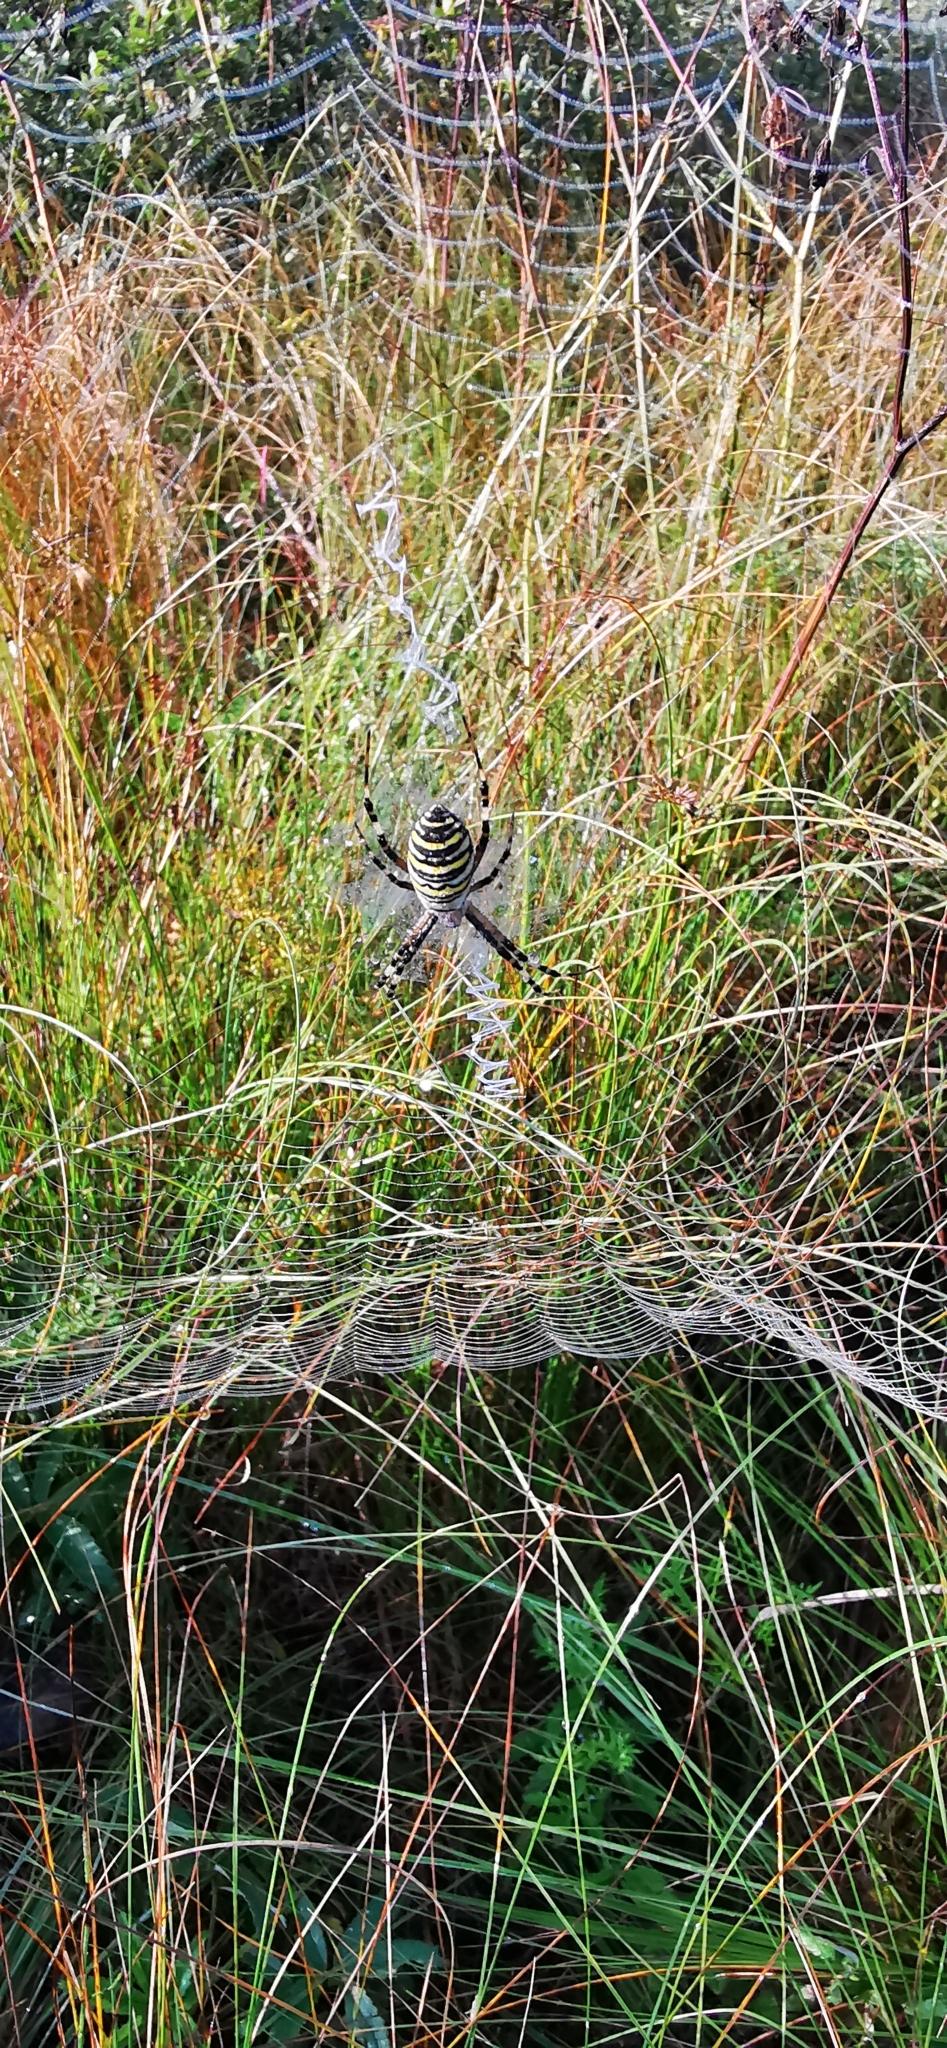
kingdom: Animalia
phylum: Arthropoda
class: Arachnida
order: Araneae
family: Araneidae
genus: Argiope
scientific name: Argiope bruennichi
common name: Wasp spider
